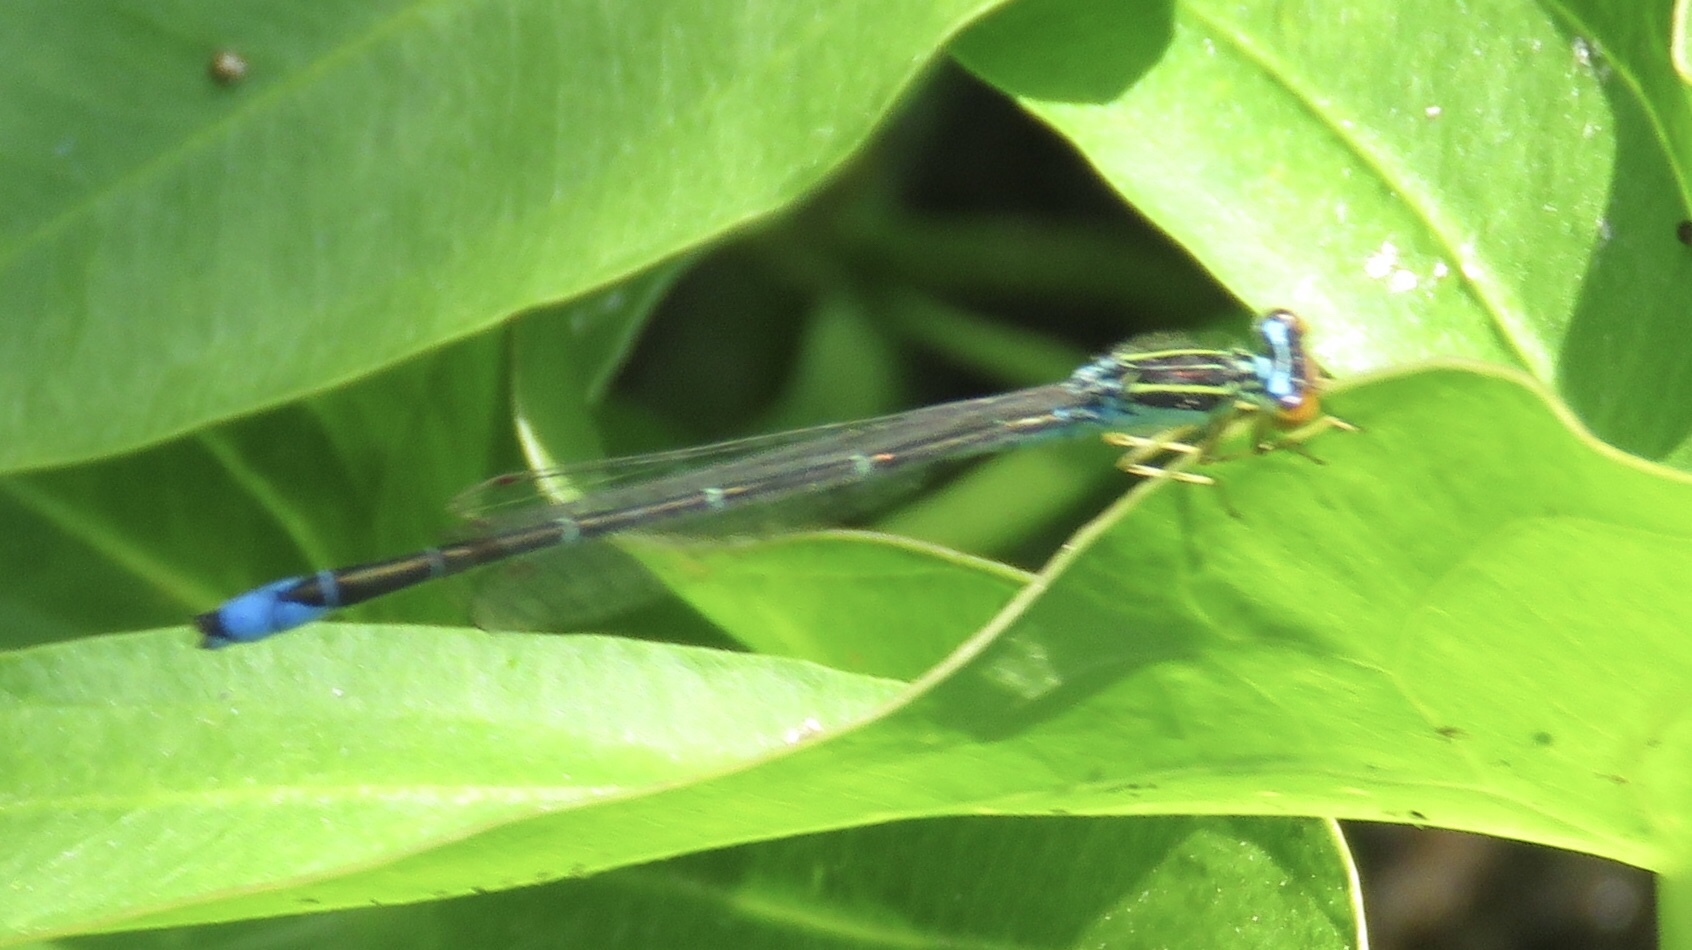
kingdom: Animalia
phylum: Arthropoda
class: Insecta
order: Odonata
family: Coenagrionidae
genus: Enallagma
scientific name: Enallagma antennatum
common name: Rainbow bluet
